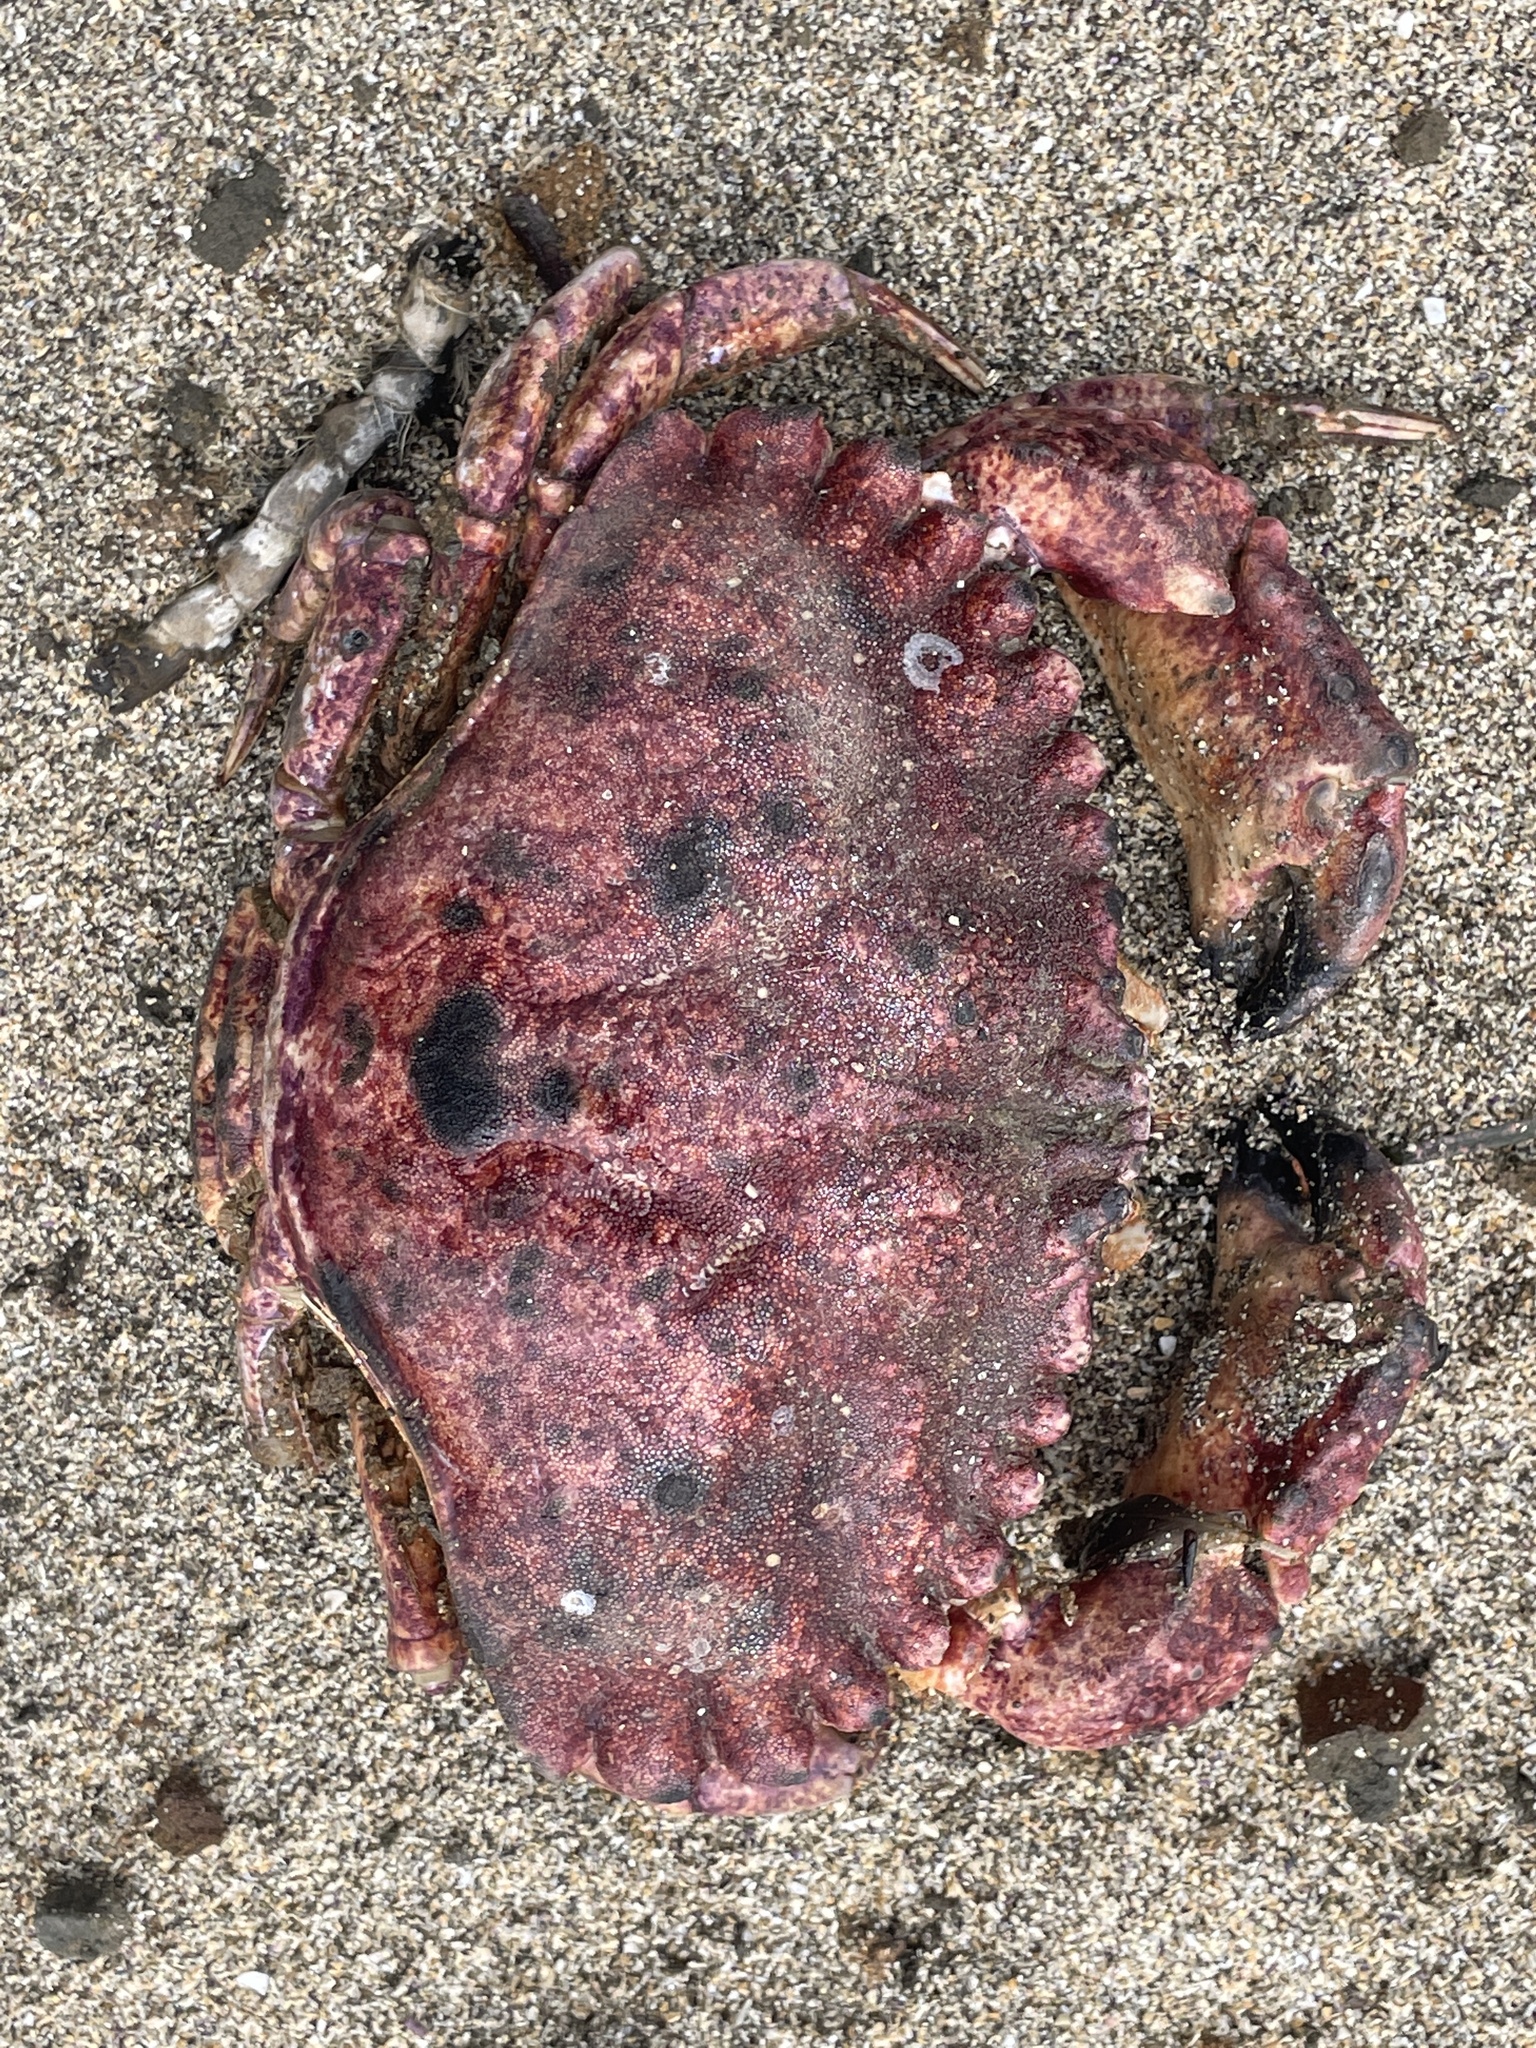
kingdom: Animalia
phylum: Arthropoda
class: Malacostraca
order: Decapoda
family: Cancridae
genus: Cancer
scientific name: Cancer productus
